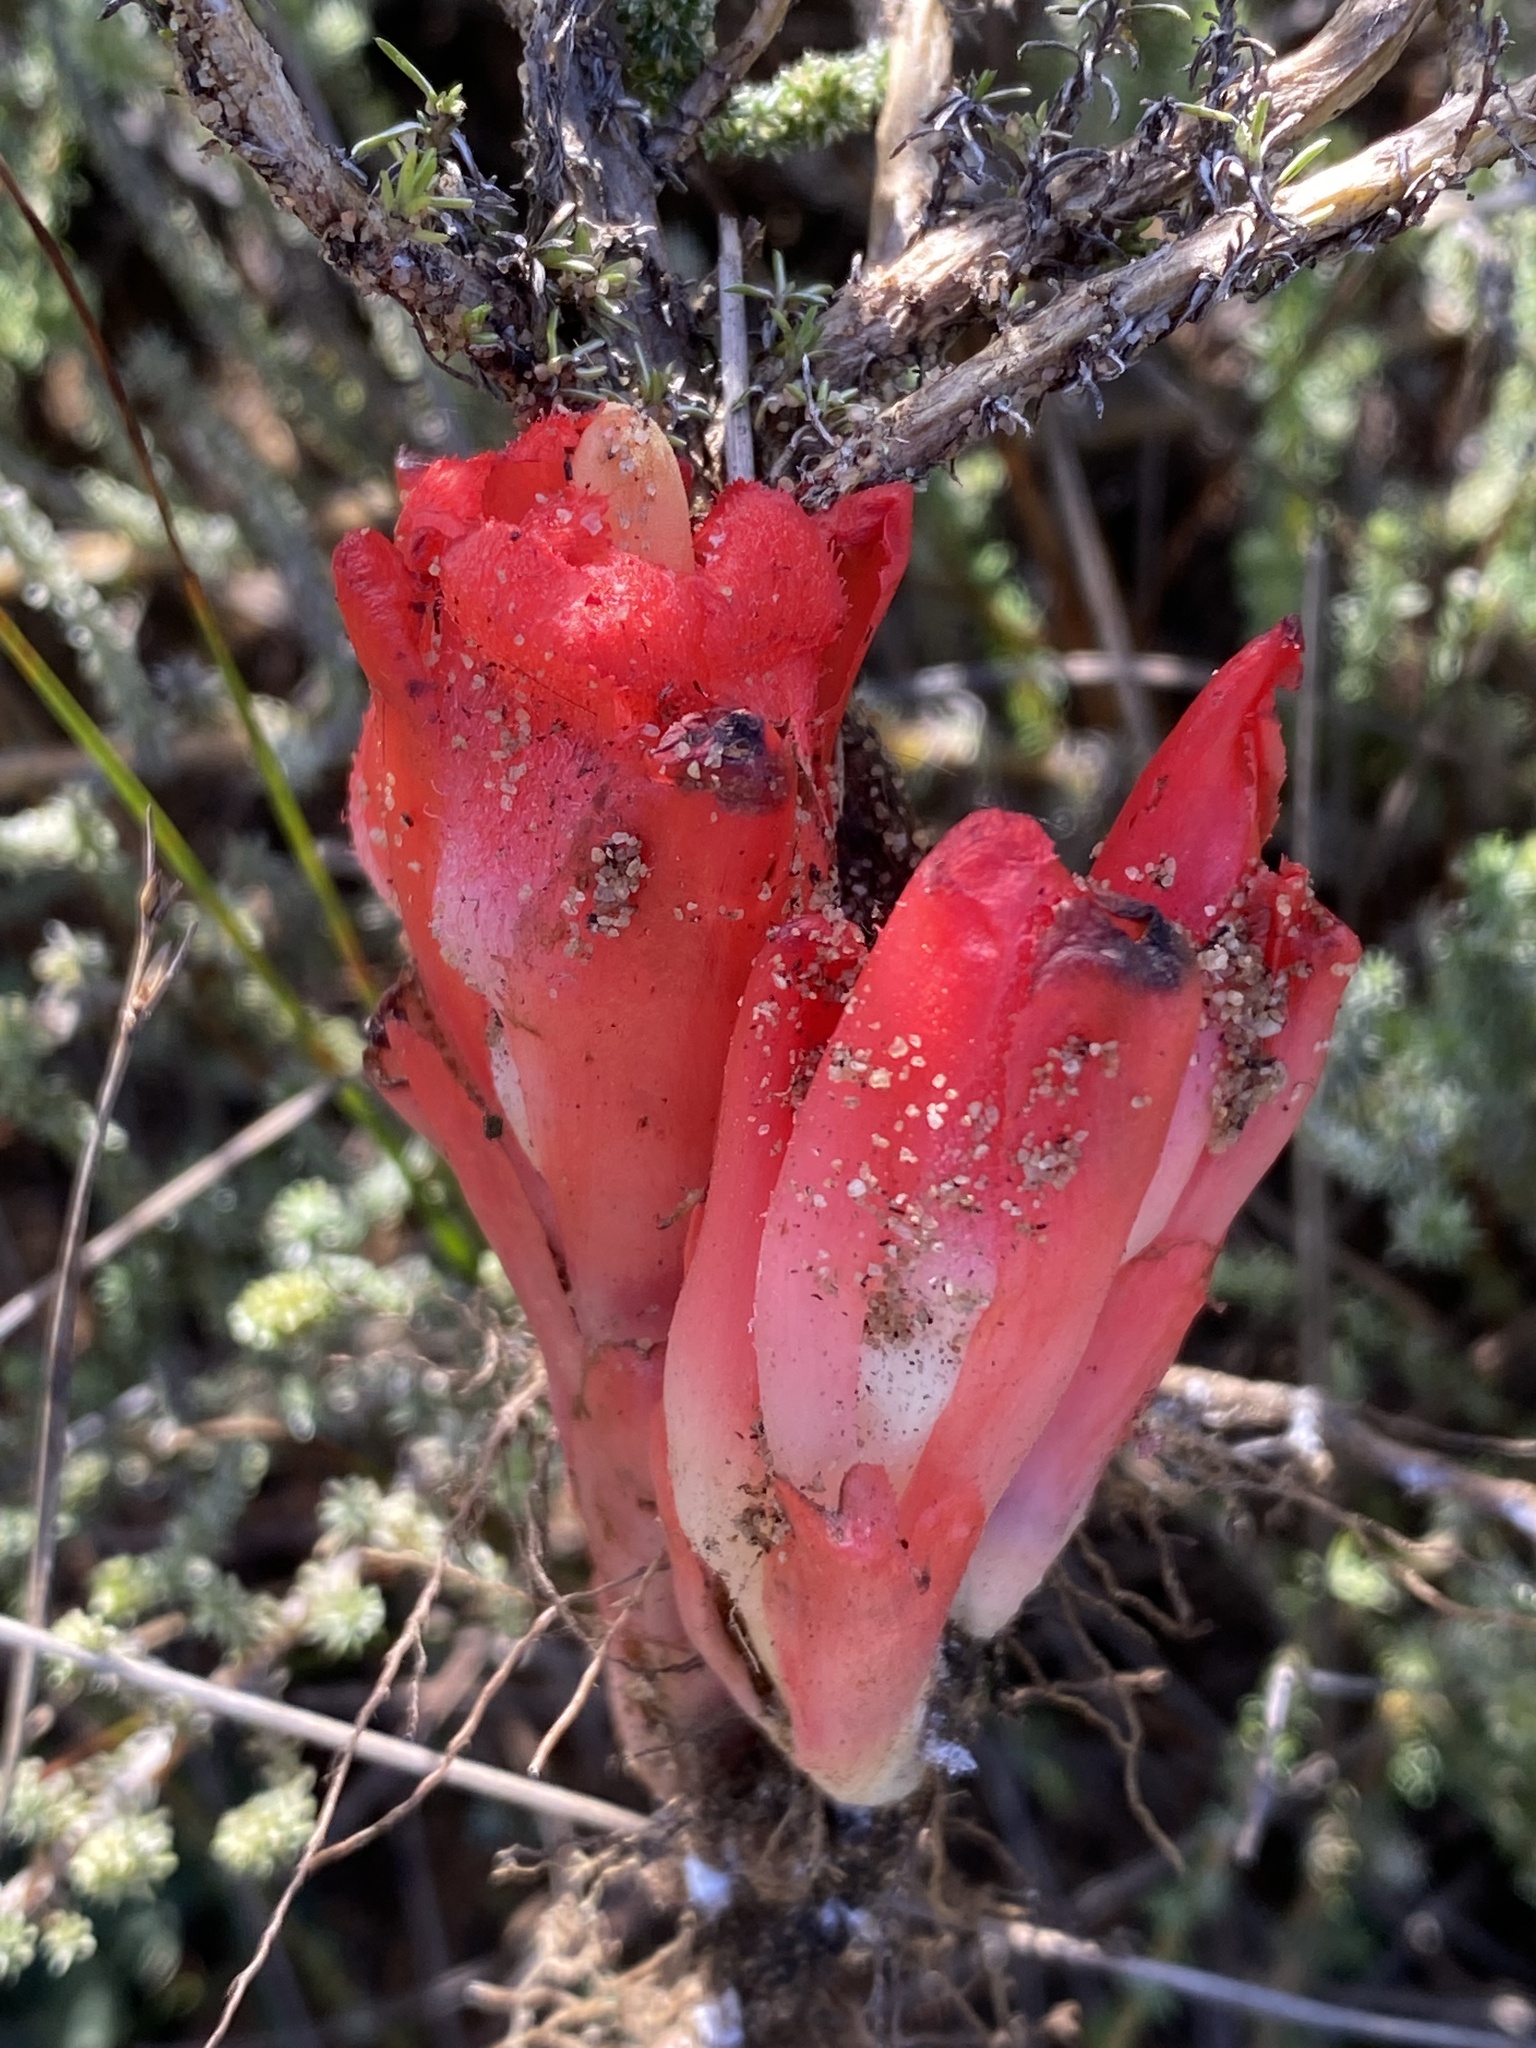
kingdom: Plantae
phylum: Tracheophyta
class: Magnoliopsida
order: Malvales
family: Cytinaceae
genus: Cytinus
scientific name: Cytinus sanguineus
